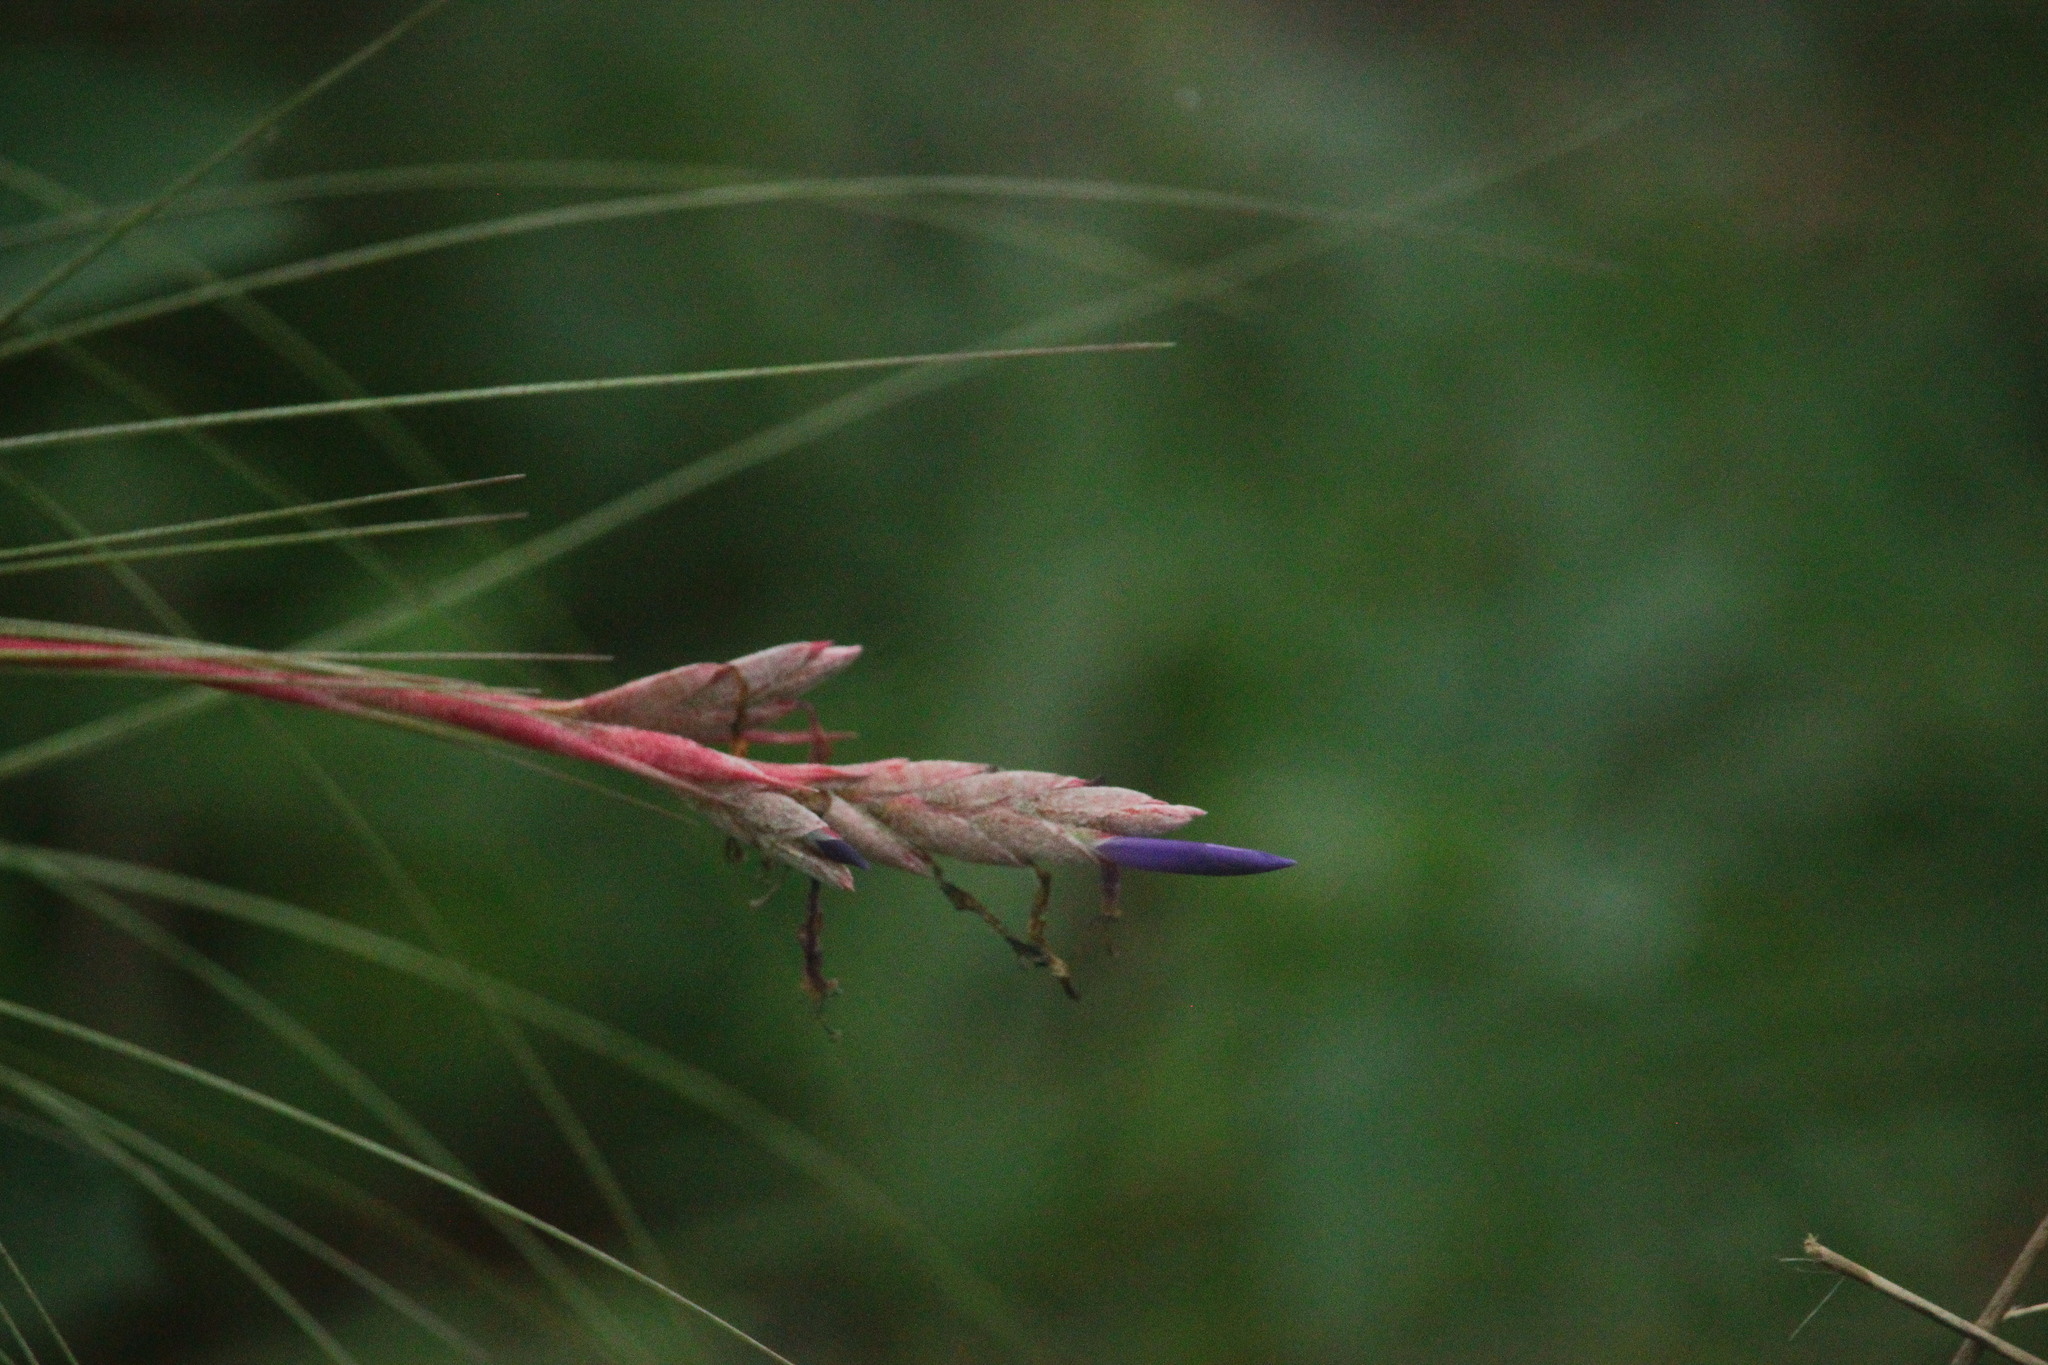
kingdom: Plantae
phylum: Tracheophyta
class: Liliopsida
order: Poales
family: Bromeliaceae
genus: Tillandsia
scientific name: Tillandsia bartramii
